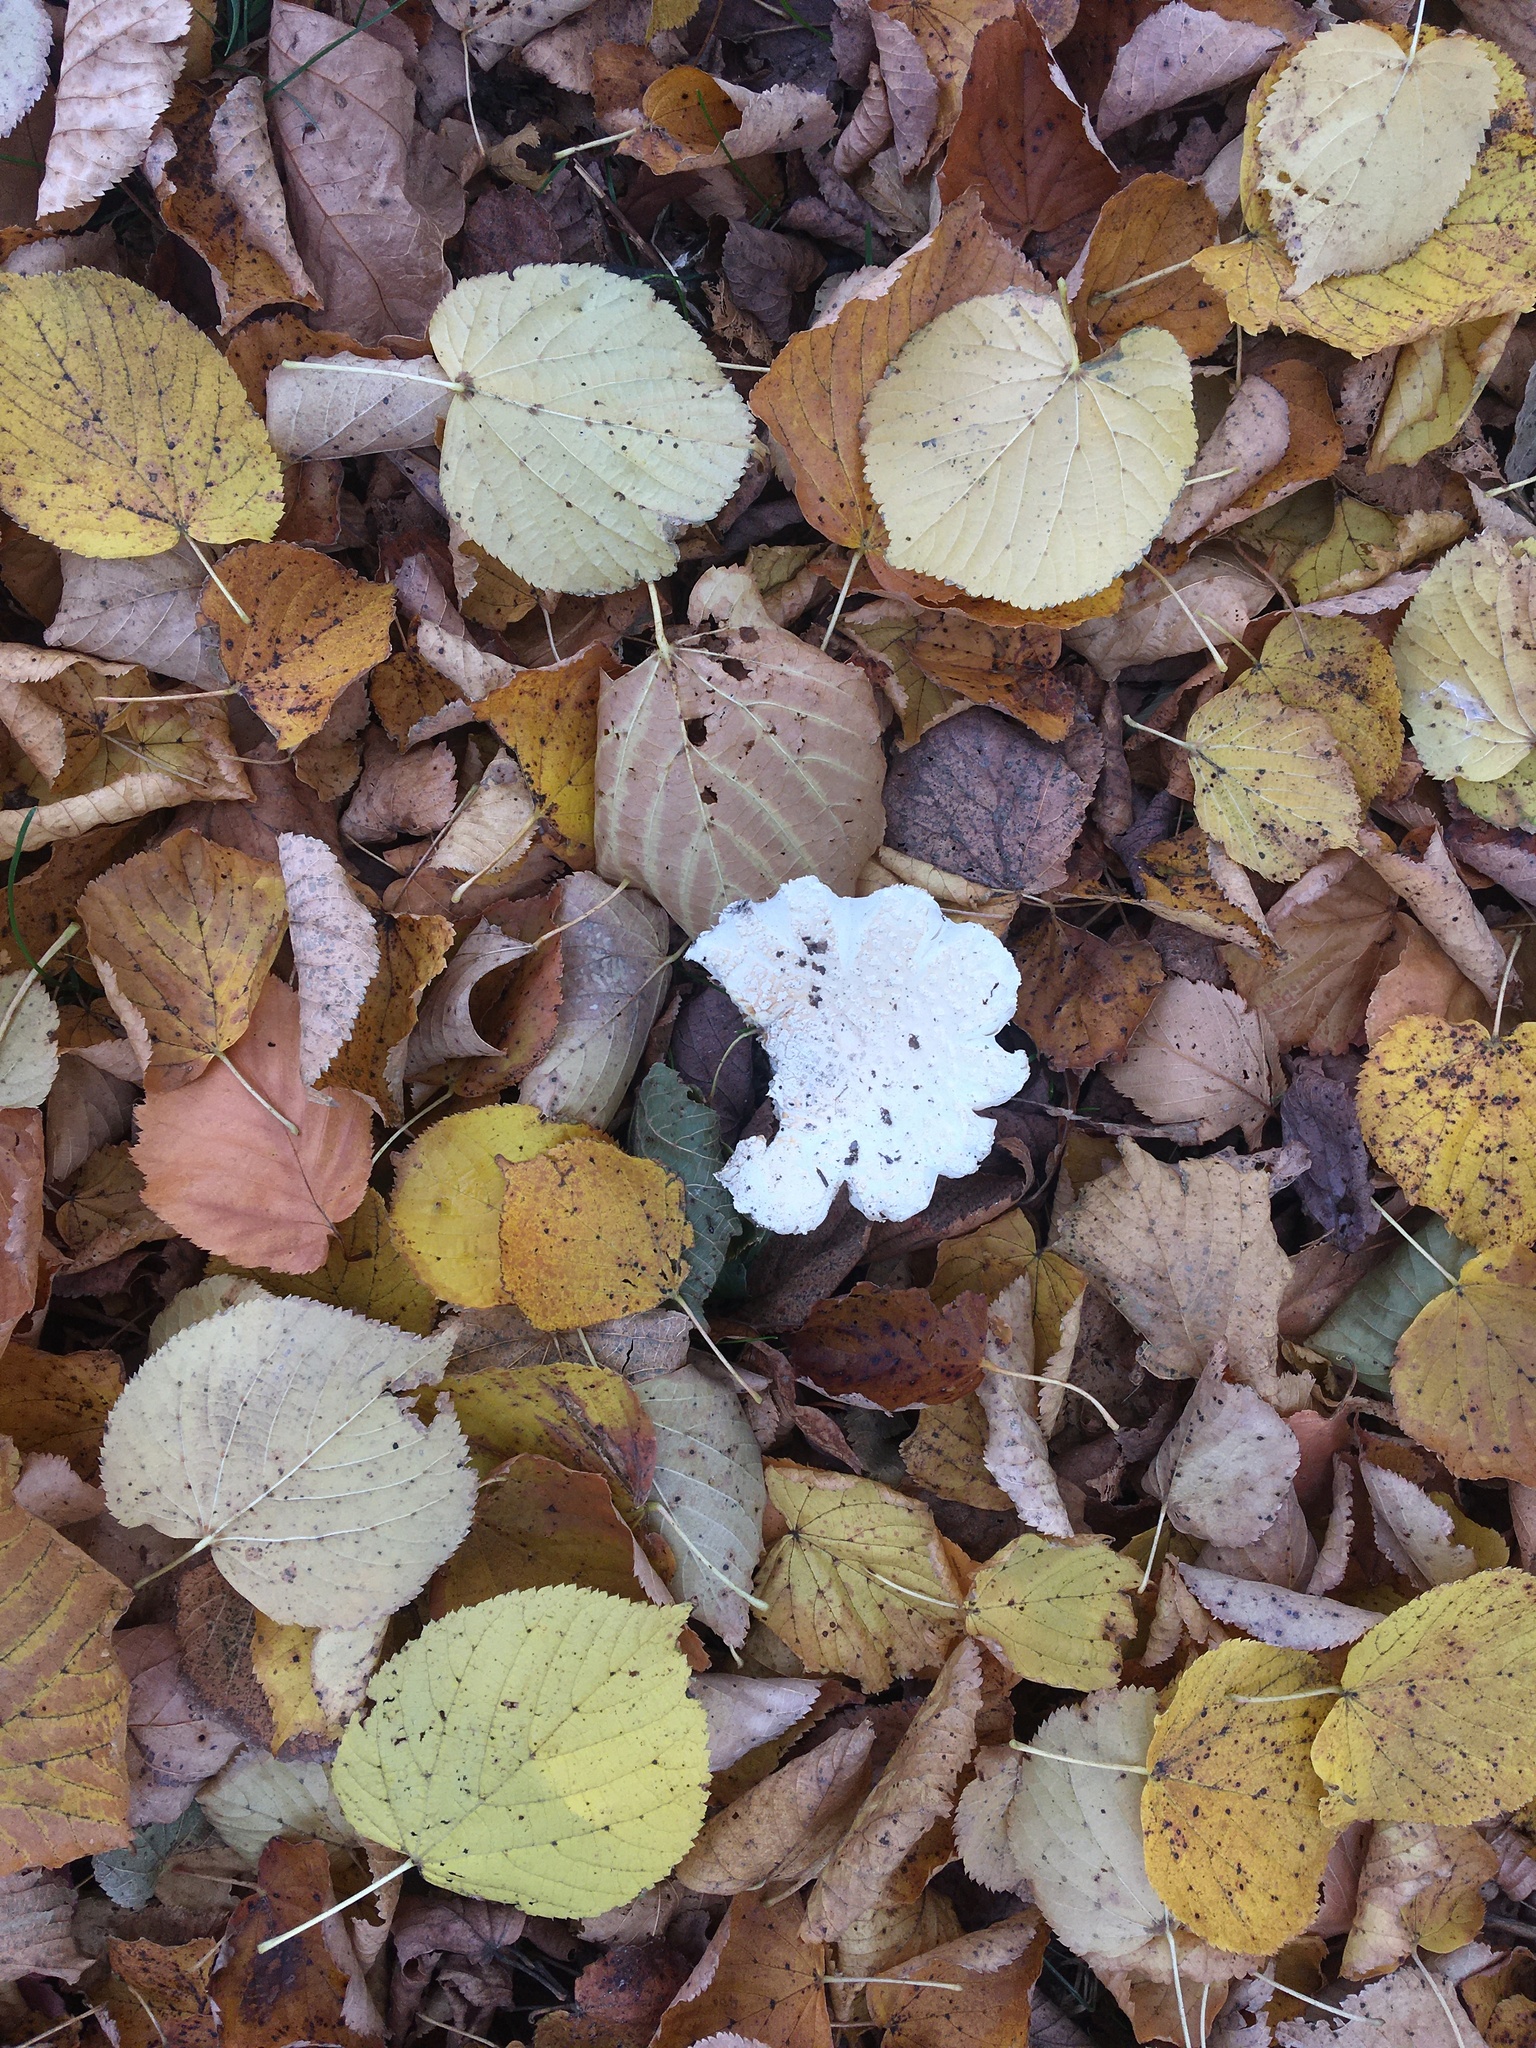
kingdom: Fungi
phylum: Basidiomycota
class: Agaricomycetes
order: Agaricales
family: Amanitaceae
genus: Amanita
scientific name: Amanita muscaria
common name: Fly agaric
